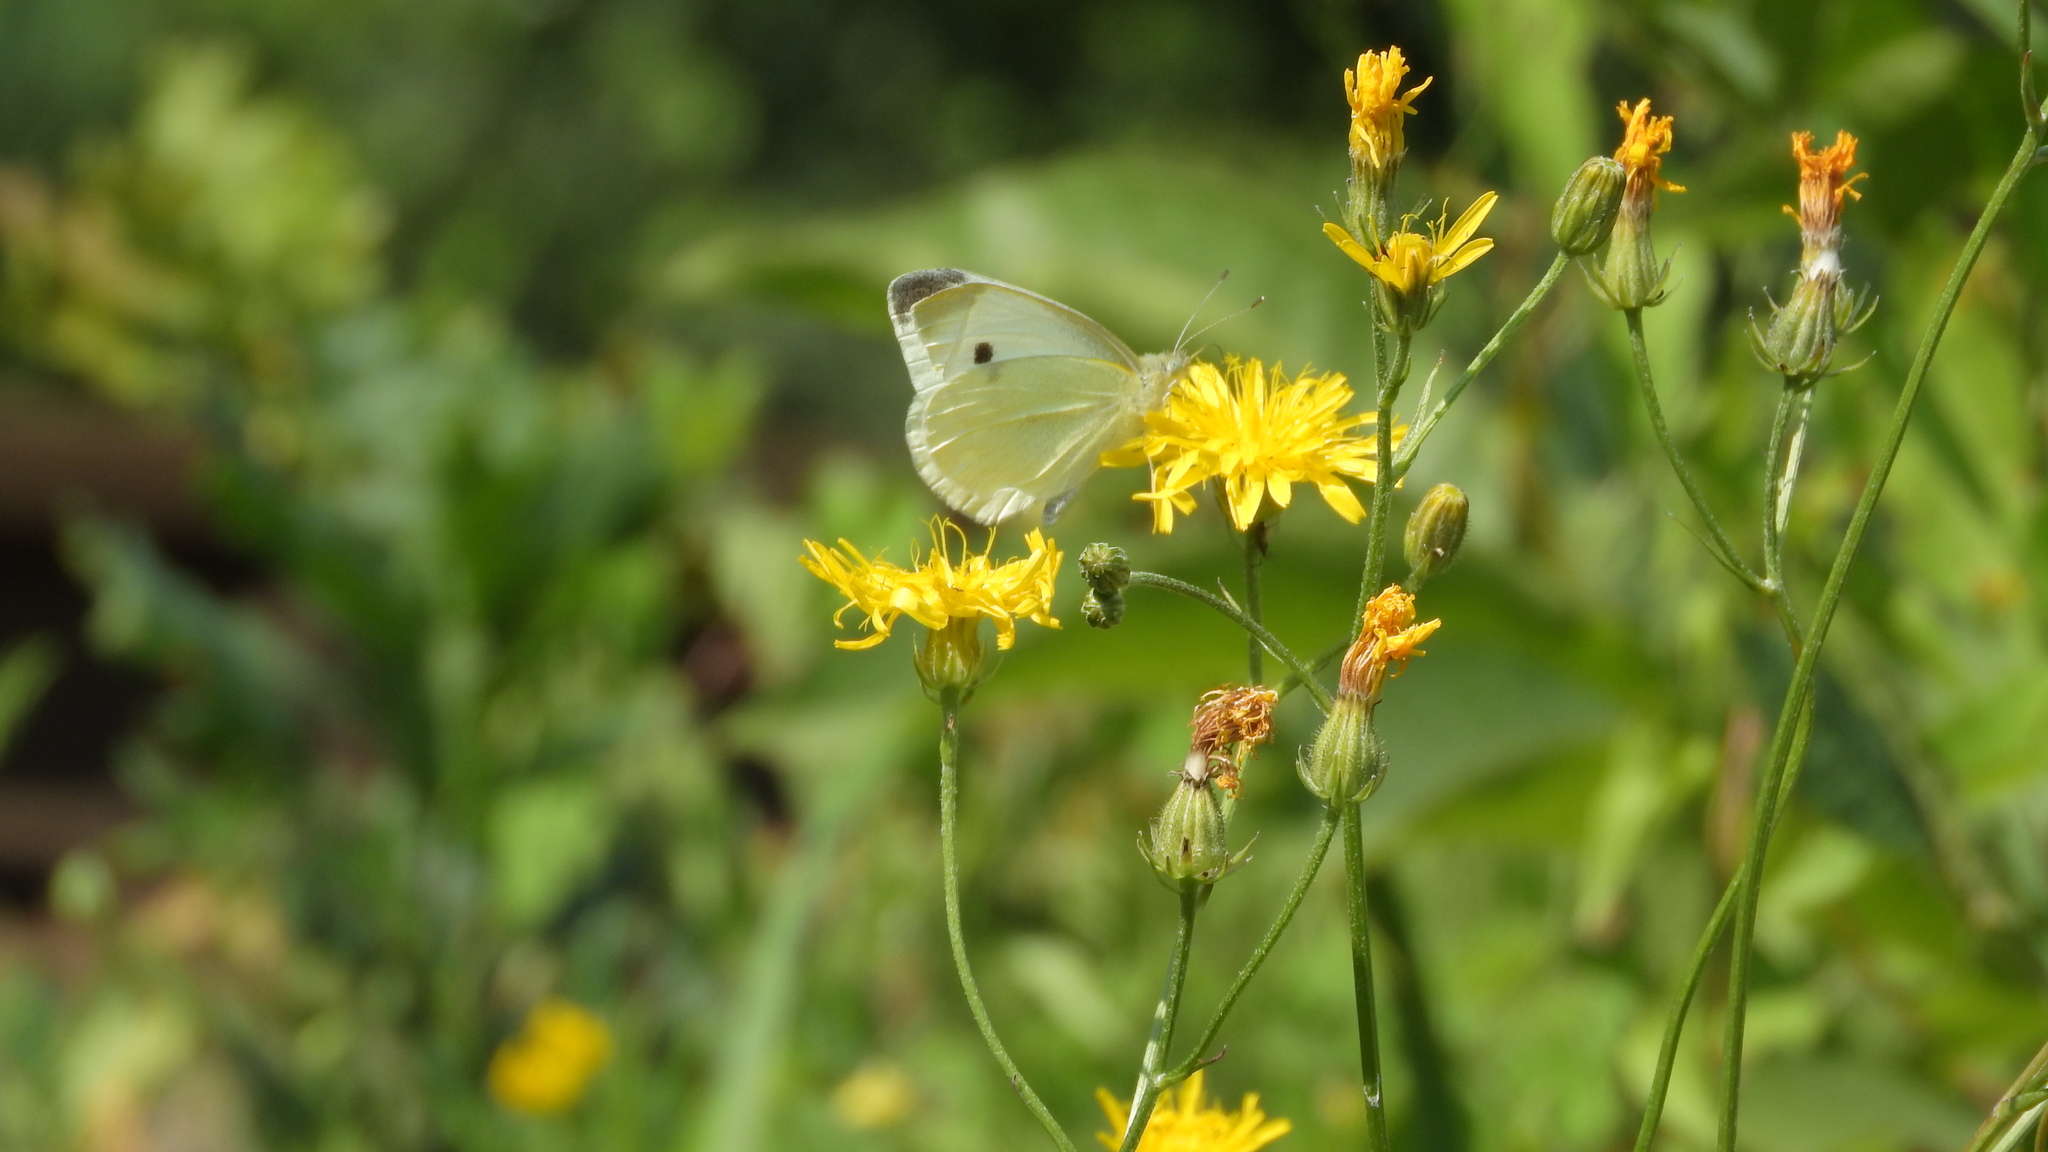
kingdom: Animalia
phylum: Arthropoda
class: Insecta
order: Lepidoptera
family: Pieridae
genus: Pieris
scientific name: Pieris rapae
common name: Small white
